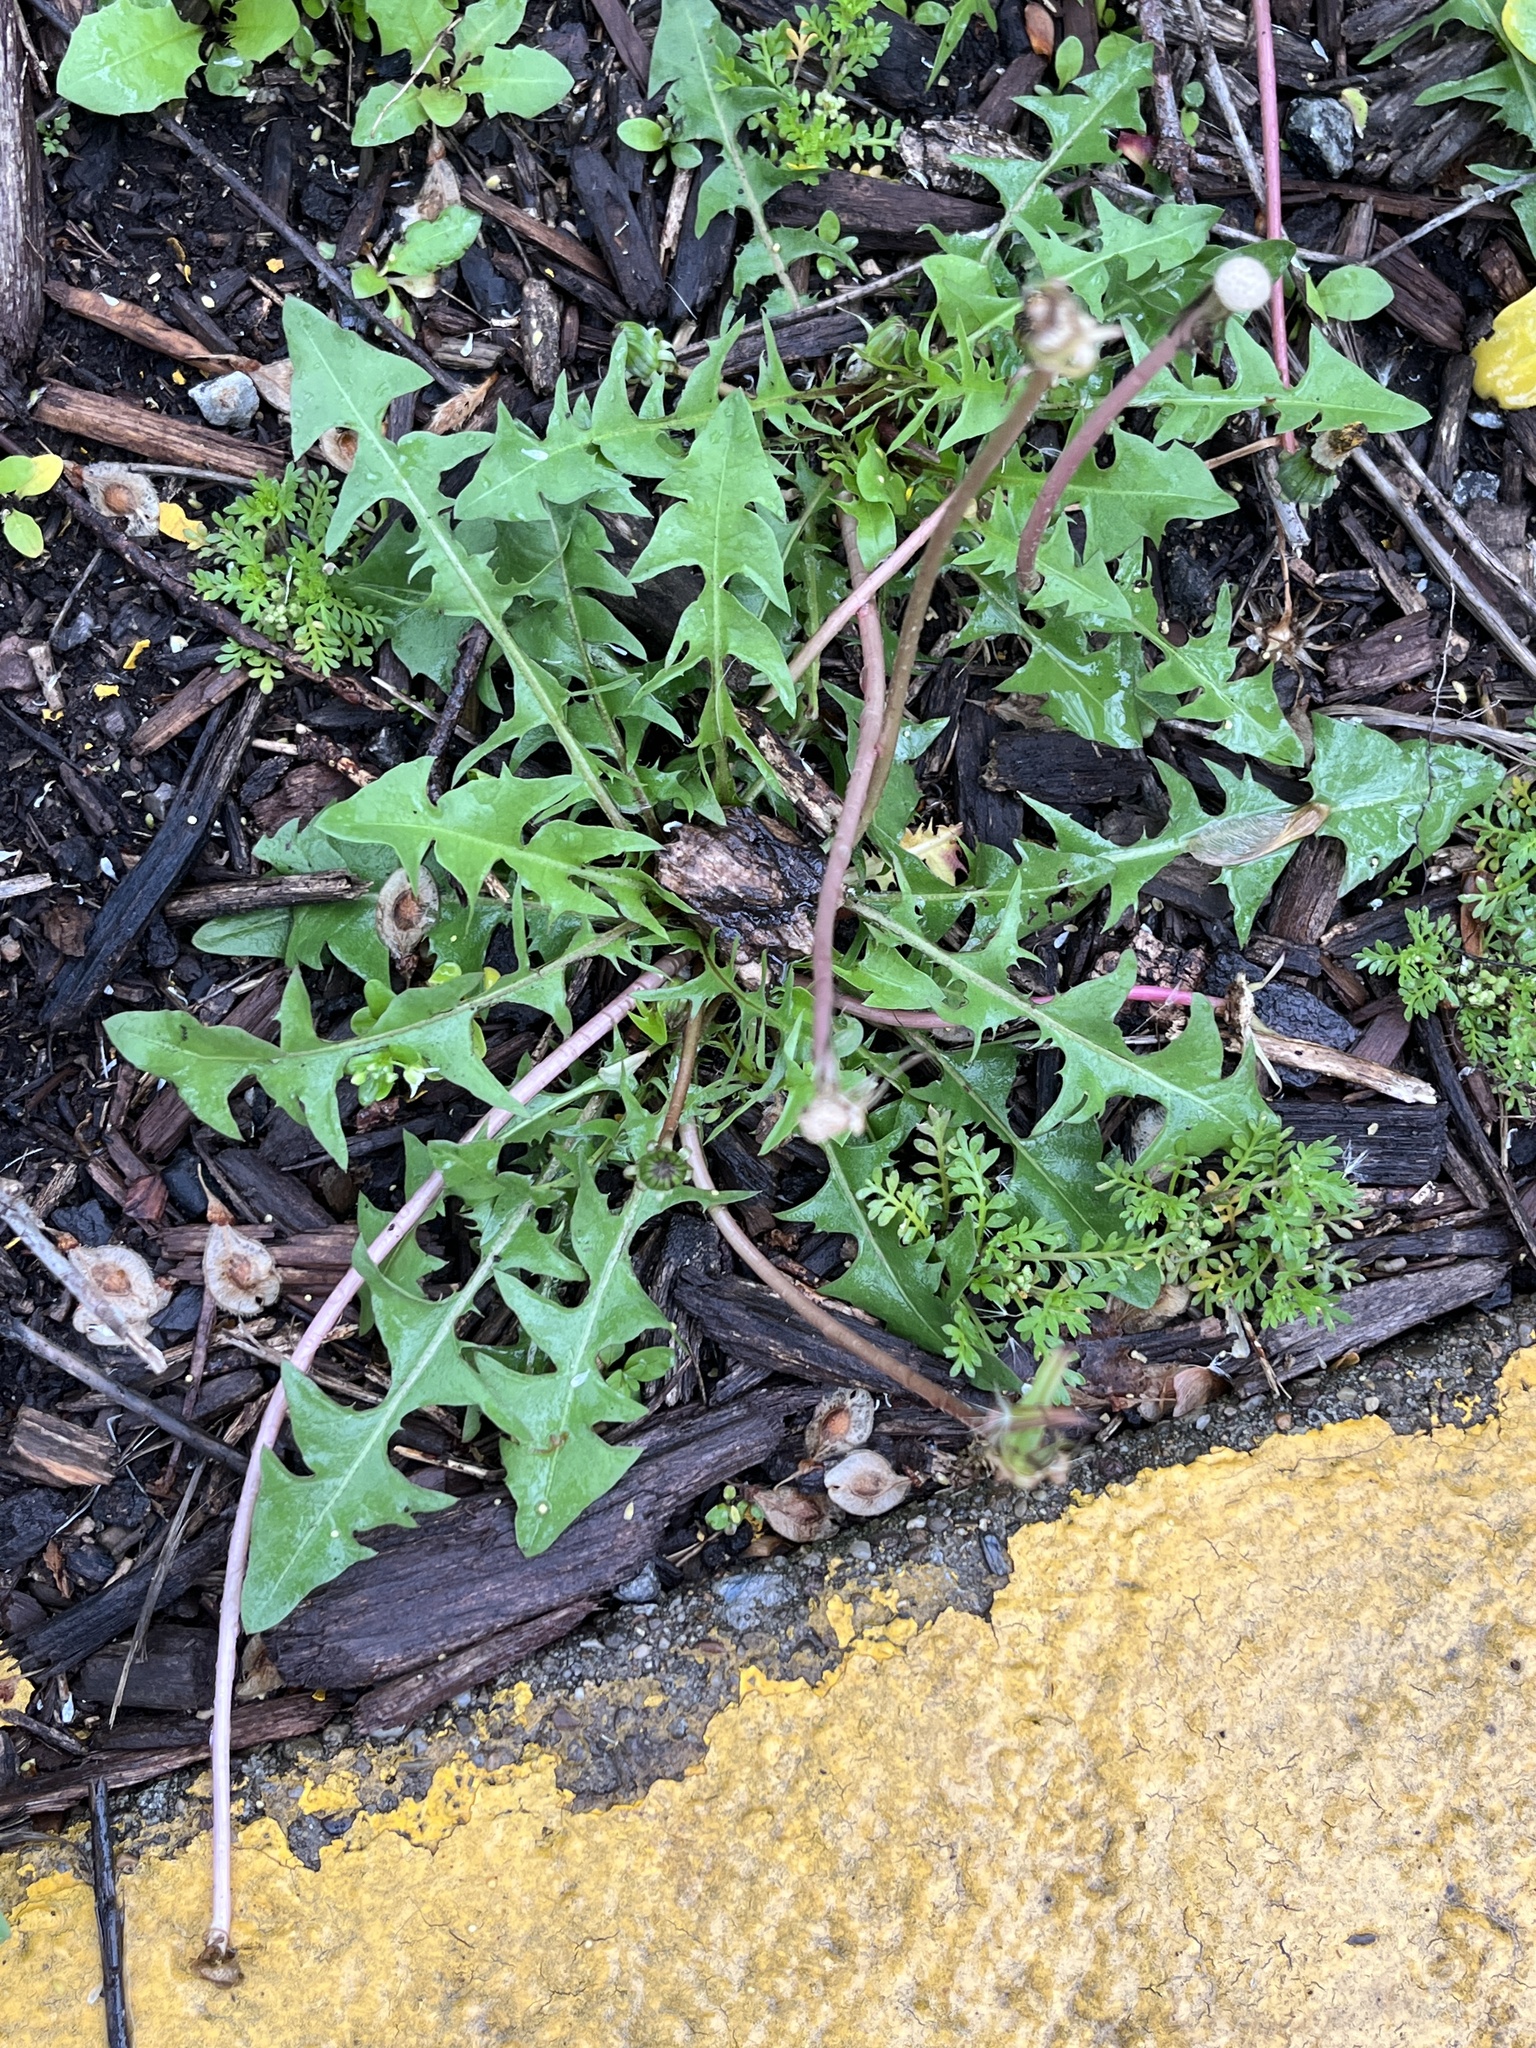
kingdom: Plantae
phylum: Tracheophyta
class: Magnoliopsida
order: Asterales
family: Asteraceae
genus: Taraxacum
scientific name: Taraxacum officinale
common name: Common dandelion
